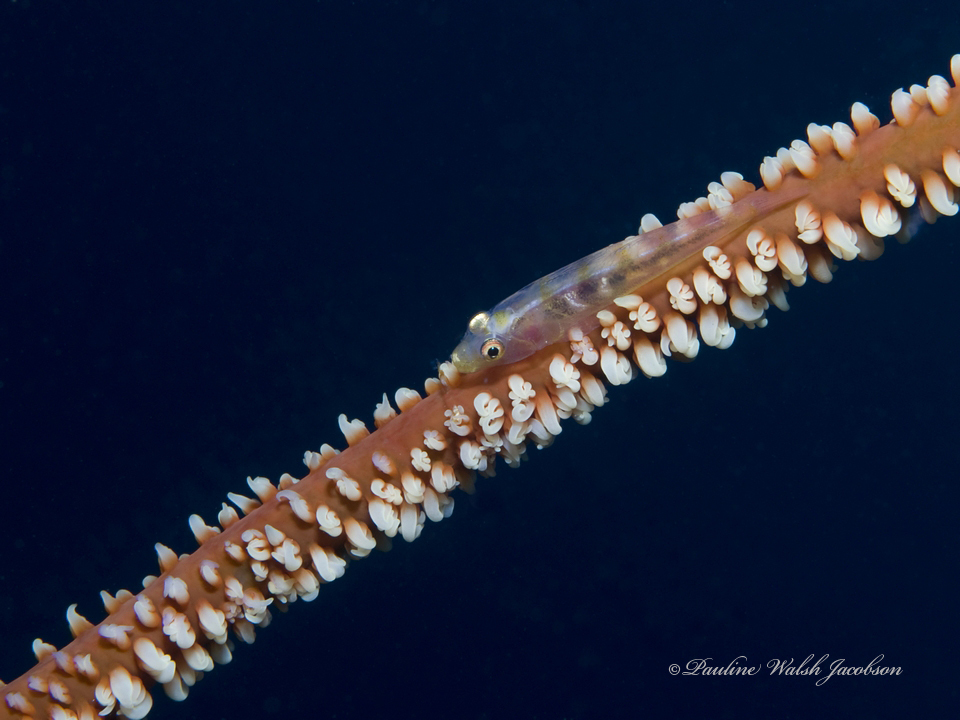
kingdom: Animalia
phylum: Chordata
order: Perciformes
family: Gobiidae
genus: Bryaninops
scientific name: Bryaninops yongei
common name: Whip coral goby
